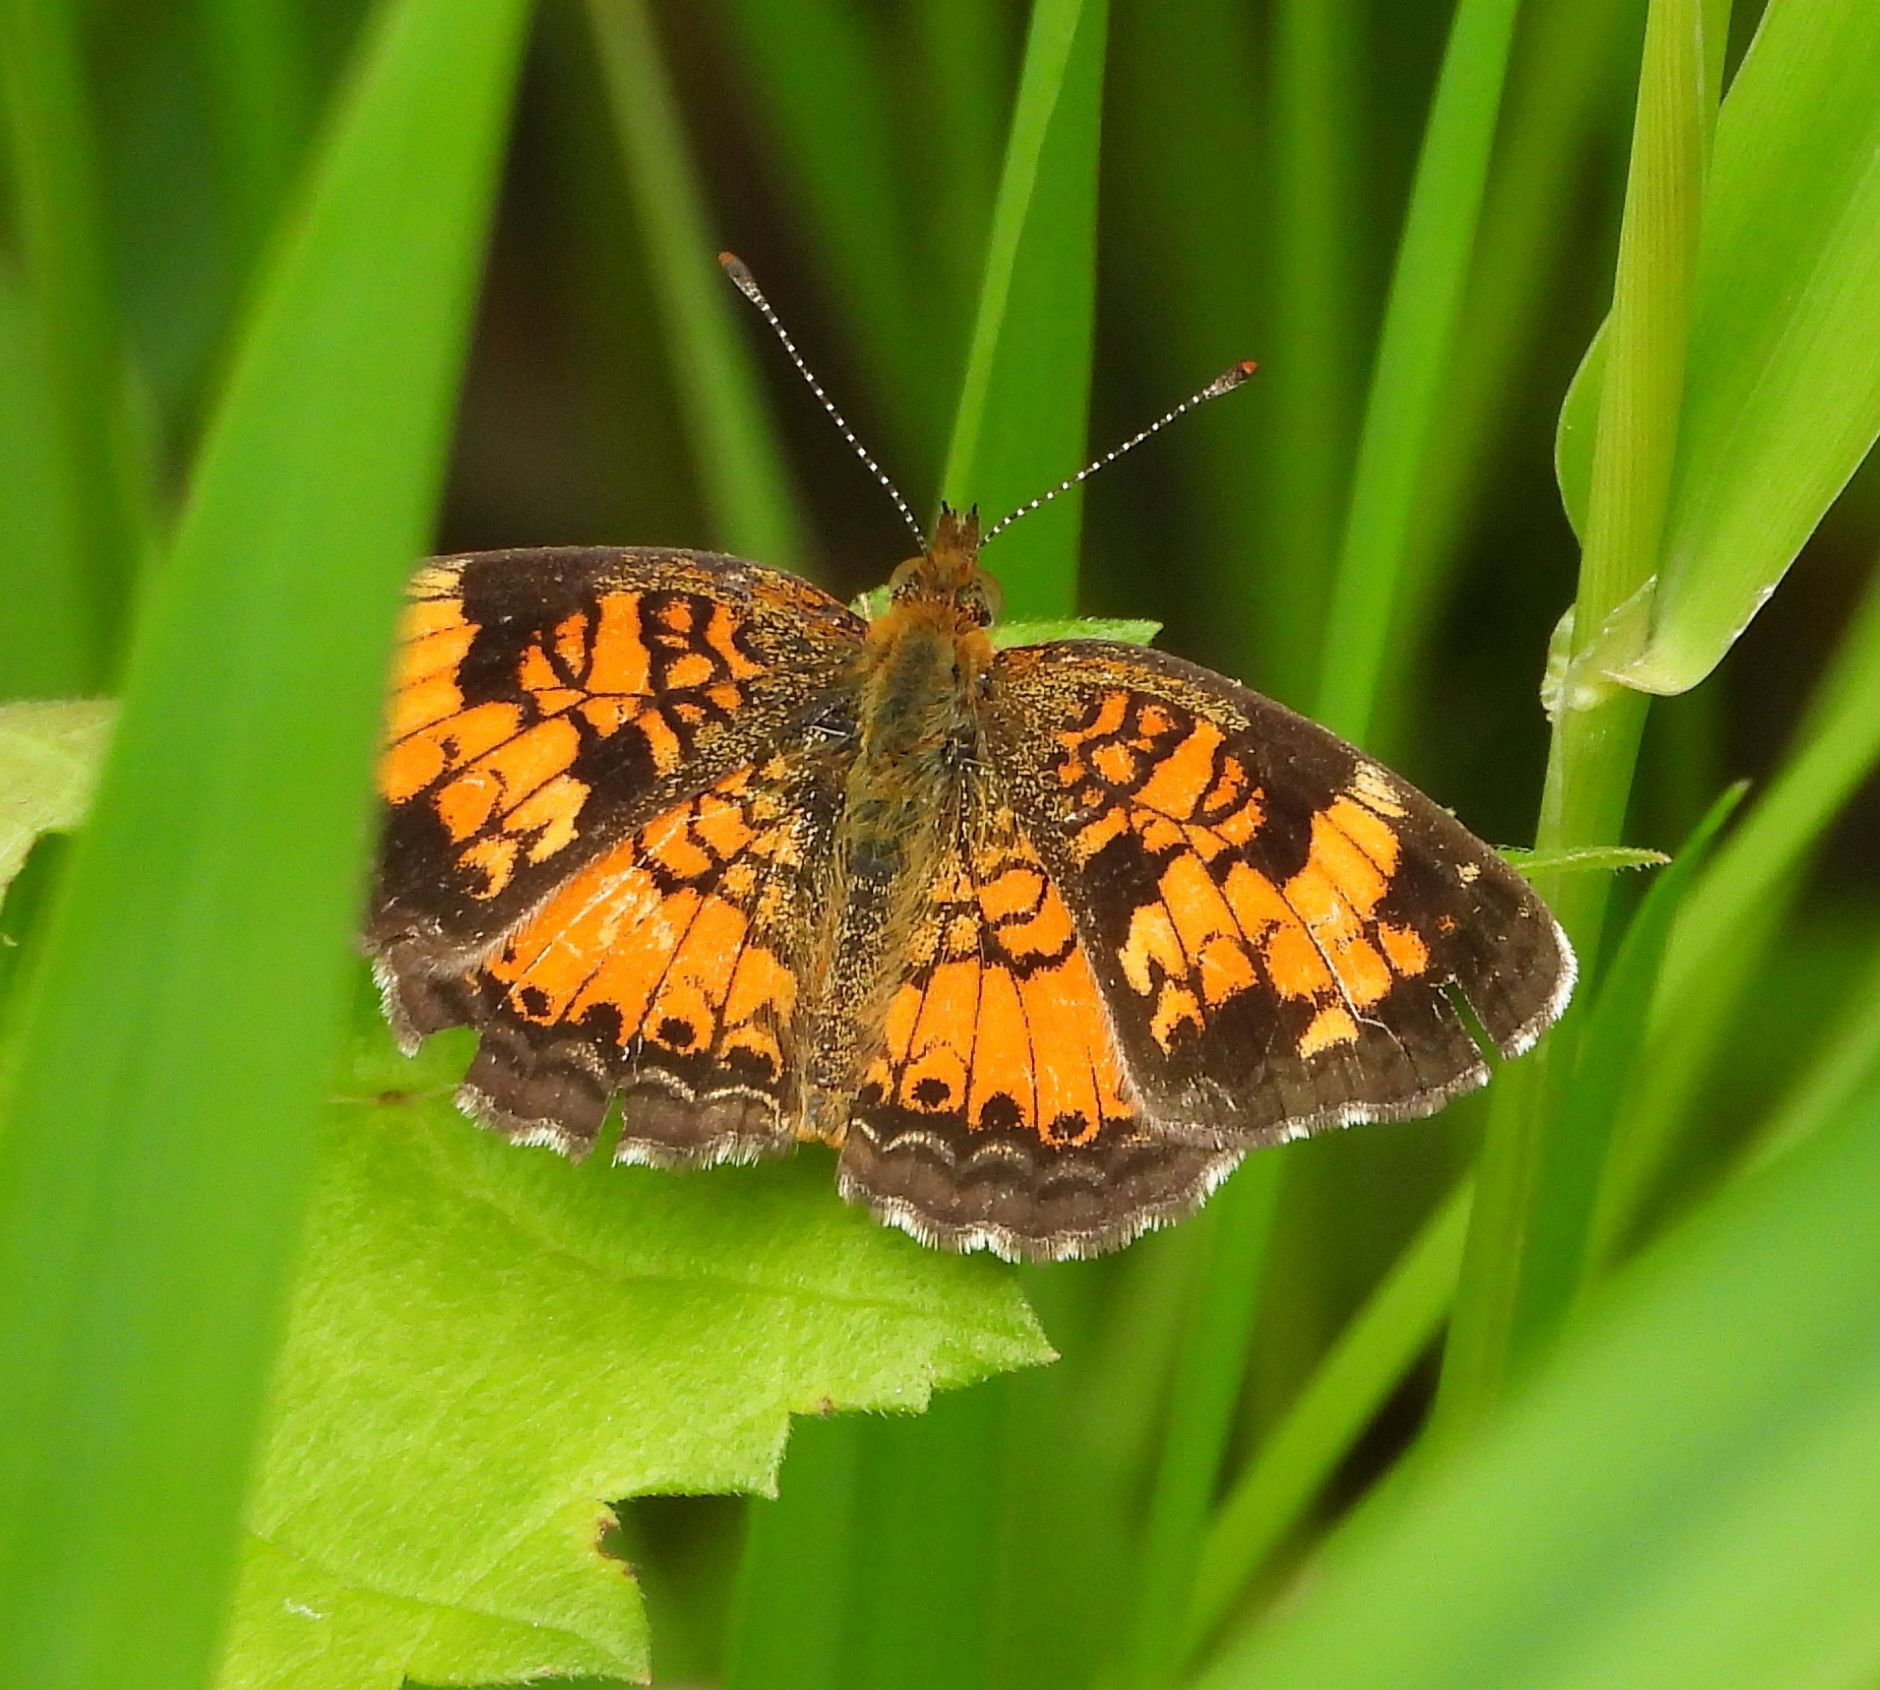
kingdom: Animalia
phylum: Arthropoda
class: Insecta
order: Lepidoptera
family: Nymphalidae
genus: Phyciodes
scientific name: Phyciodes tharos
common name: Pearl crescent
